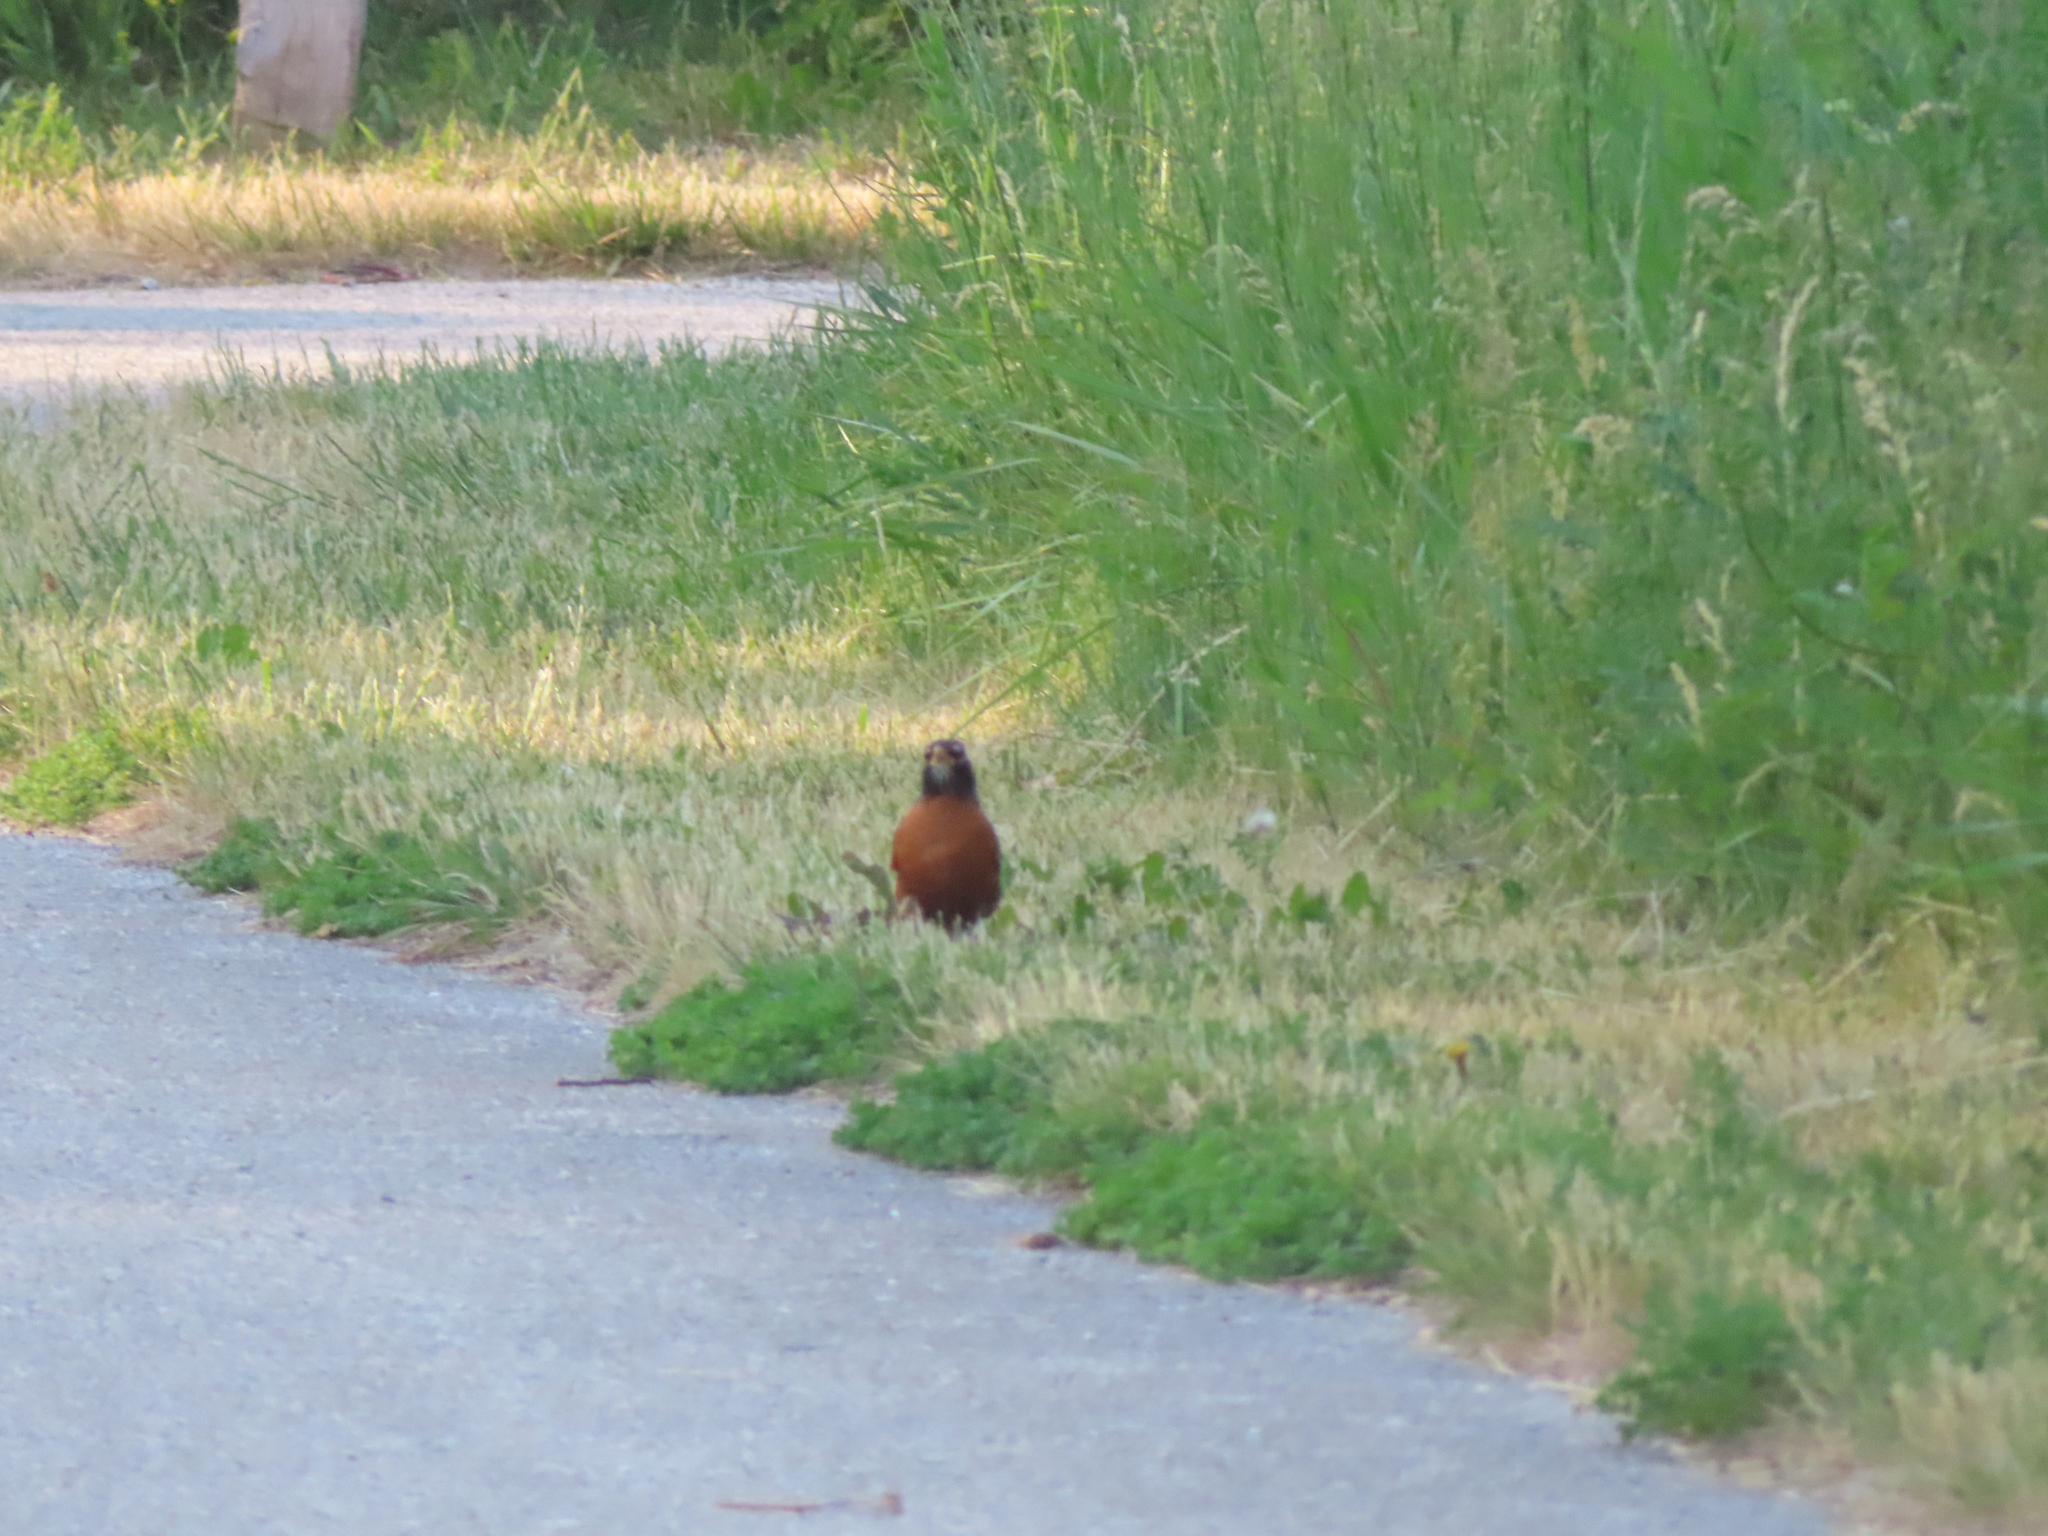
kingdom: Animalia
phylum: Chordata
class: Aves
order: Passeriformes
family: Turdidae
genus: Turdus
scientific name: Turdus migratorius
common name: American robin
